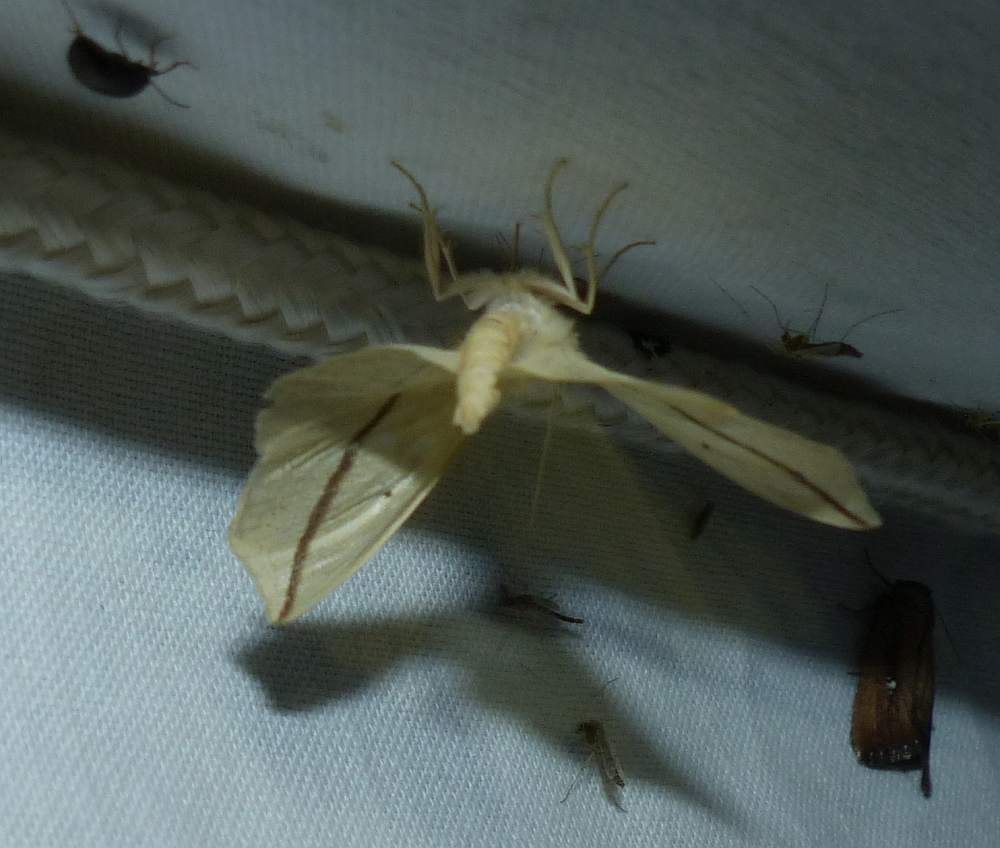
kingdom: Animalia
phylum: Arthropoda
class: Insecta
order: Lepidoptera
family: Geometridae
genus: Tetracis
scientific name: Tetracis crocallata
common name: Yellow slant-line
